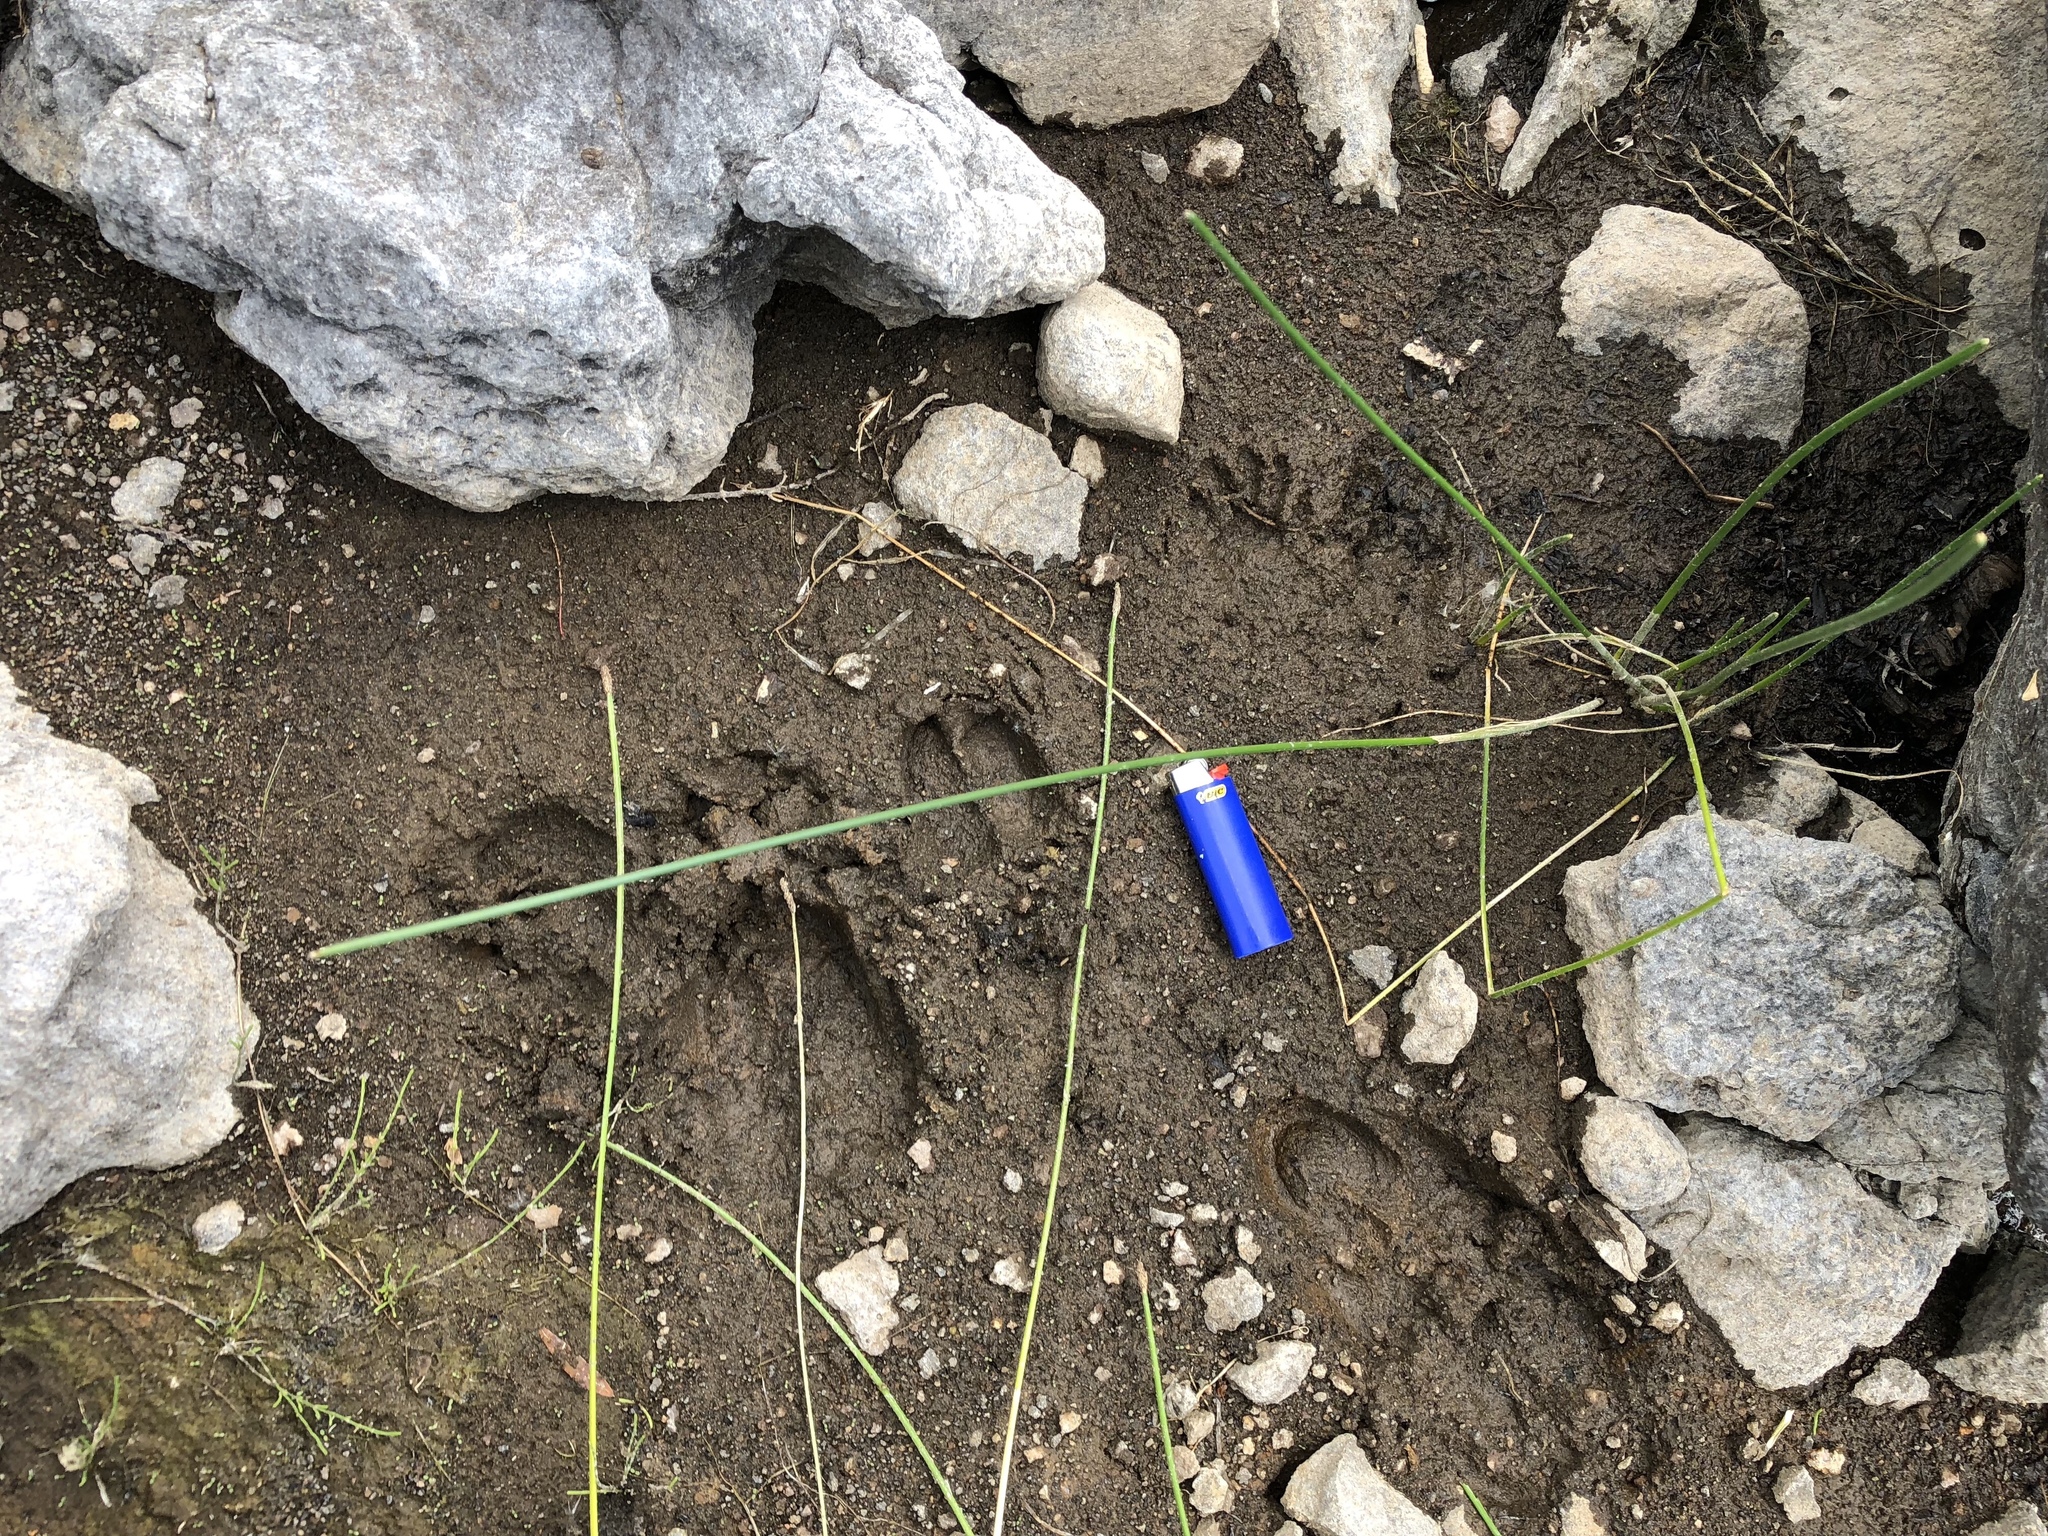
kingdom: Animalia
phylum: Chordata
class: Mammalia
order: Carnivora
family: Procyonidae
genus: Procyon
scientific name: Procyon lotor
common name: Raccoon
